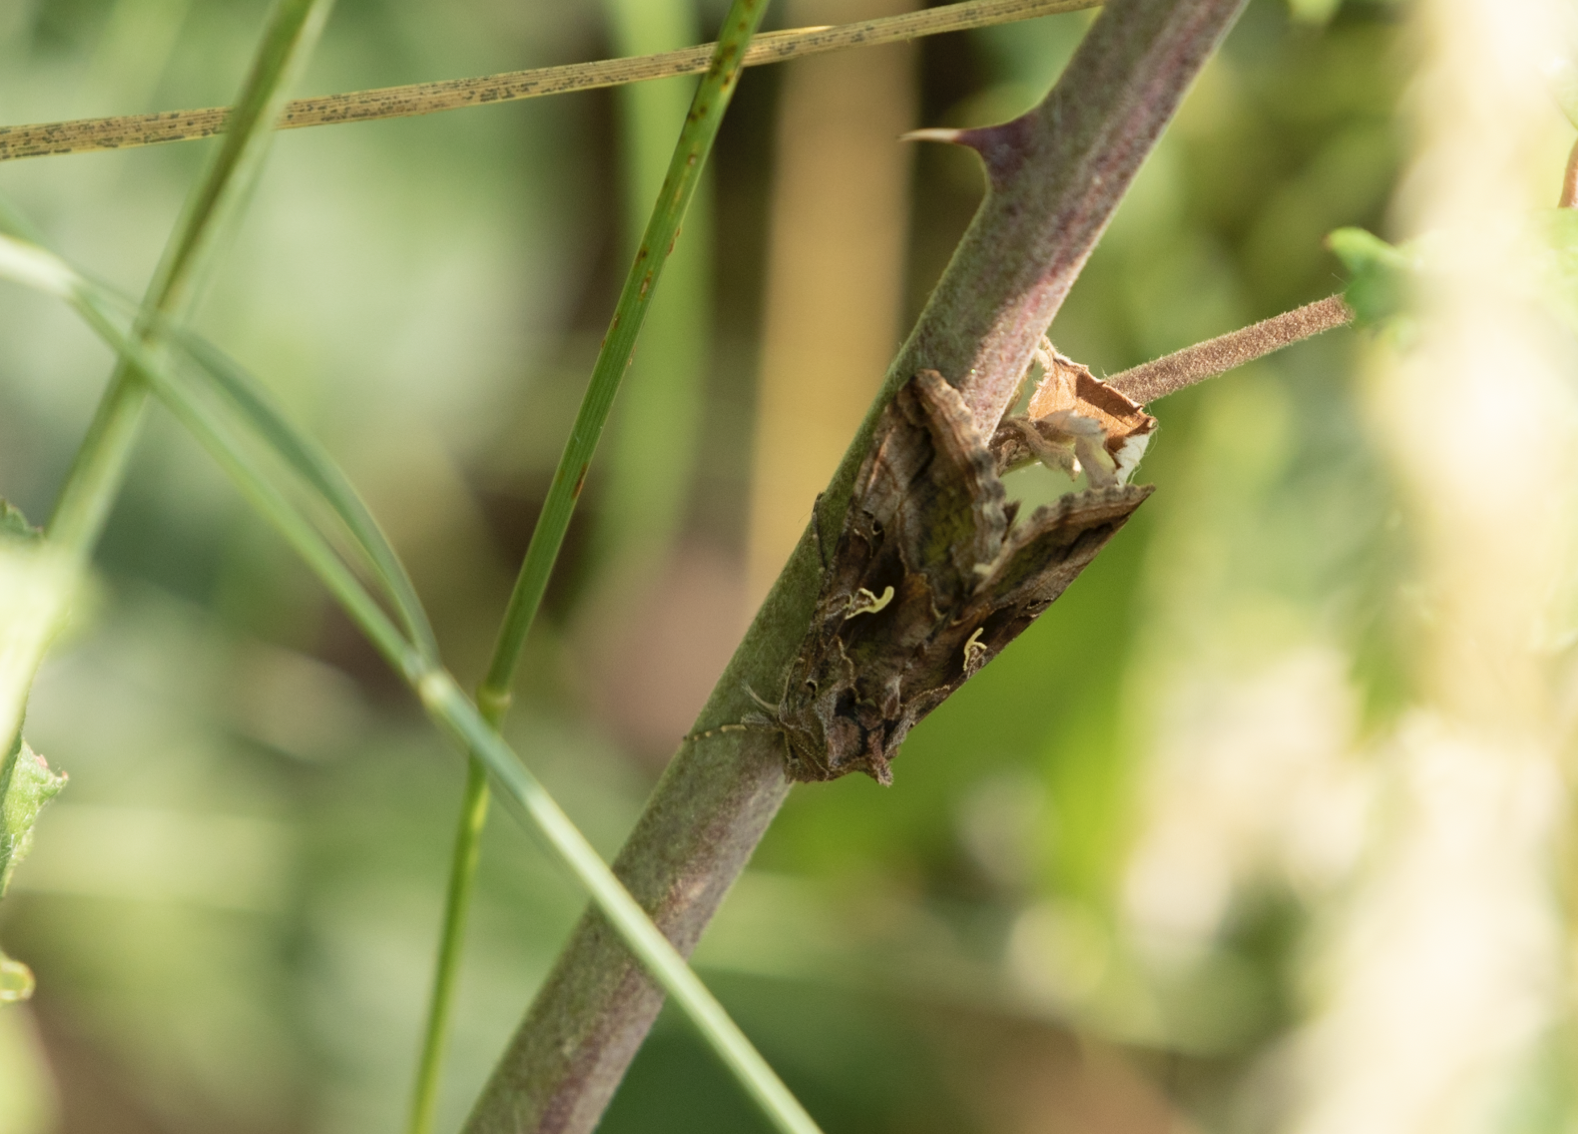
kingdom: Animalia
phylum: Arthropoda
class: Insecta
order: Lepidoptera
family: Noctuidae
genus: Autographa
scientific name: Autographa gamma
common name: Silver y
